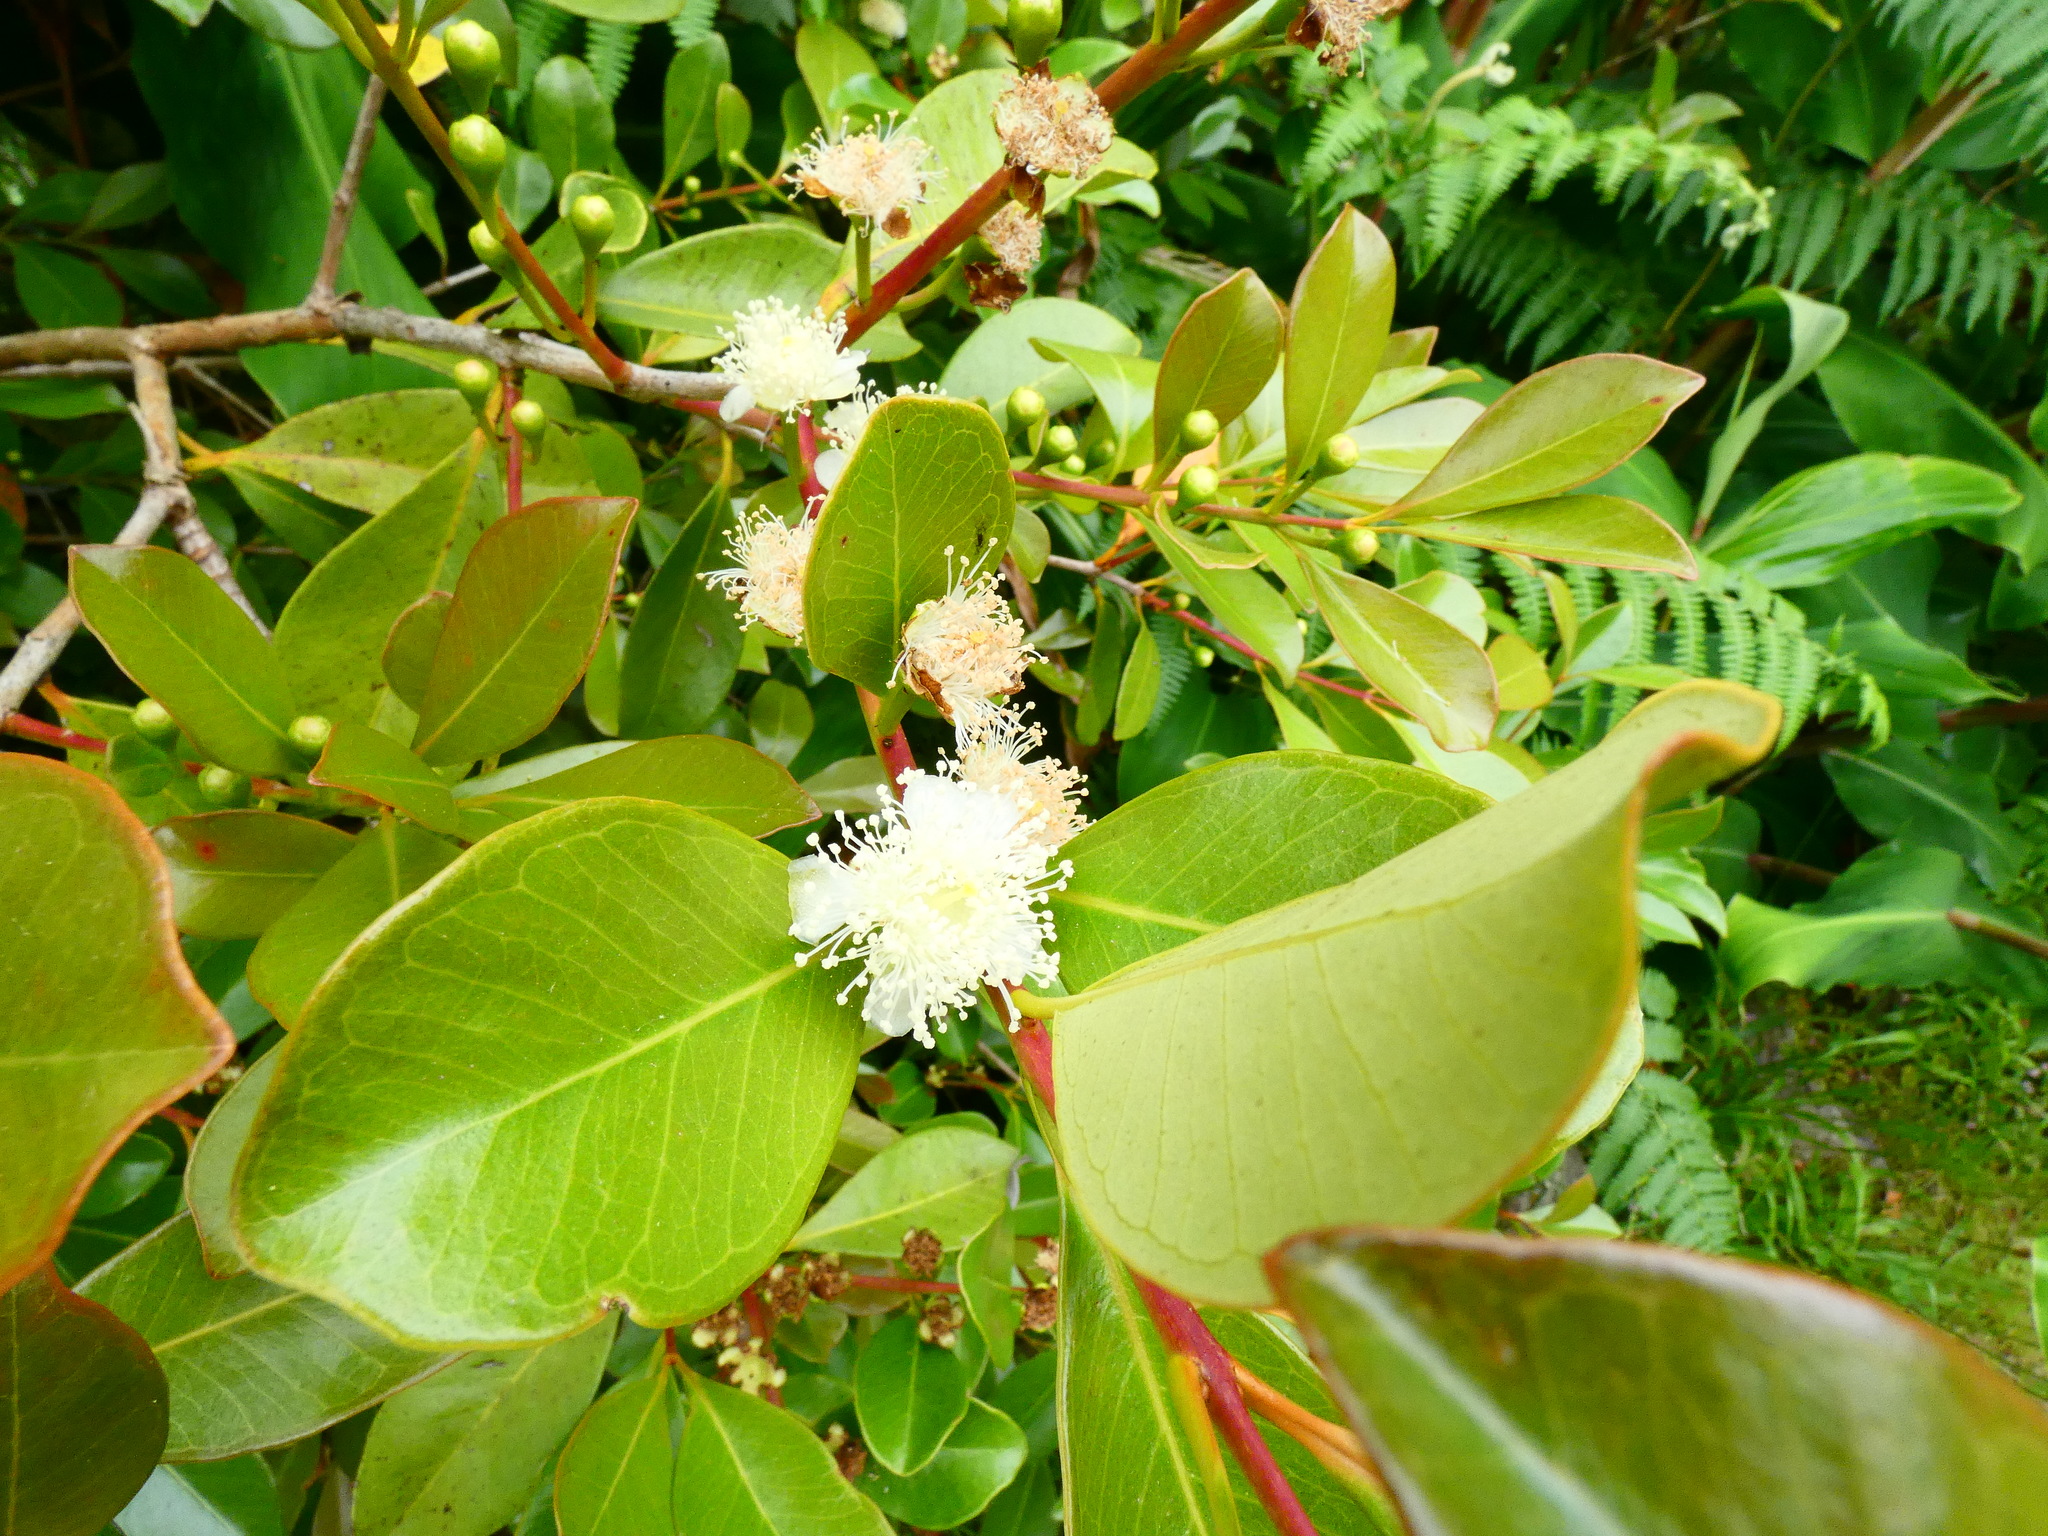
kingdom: Plantae
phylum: Tracheophyta
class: Magnoliopsida
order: Myrtales
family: Myrtaceae
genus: Psidium
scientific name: Psidium cattleianum
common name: Strawberry guava
